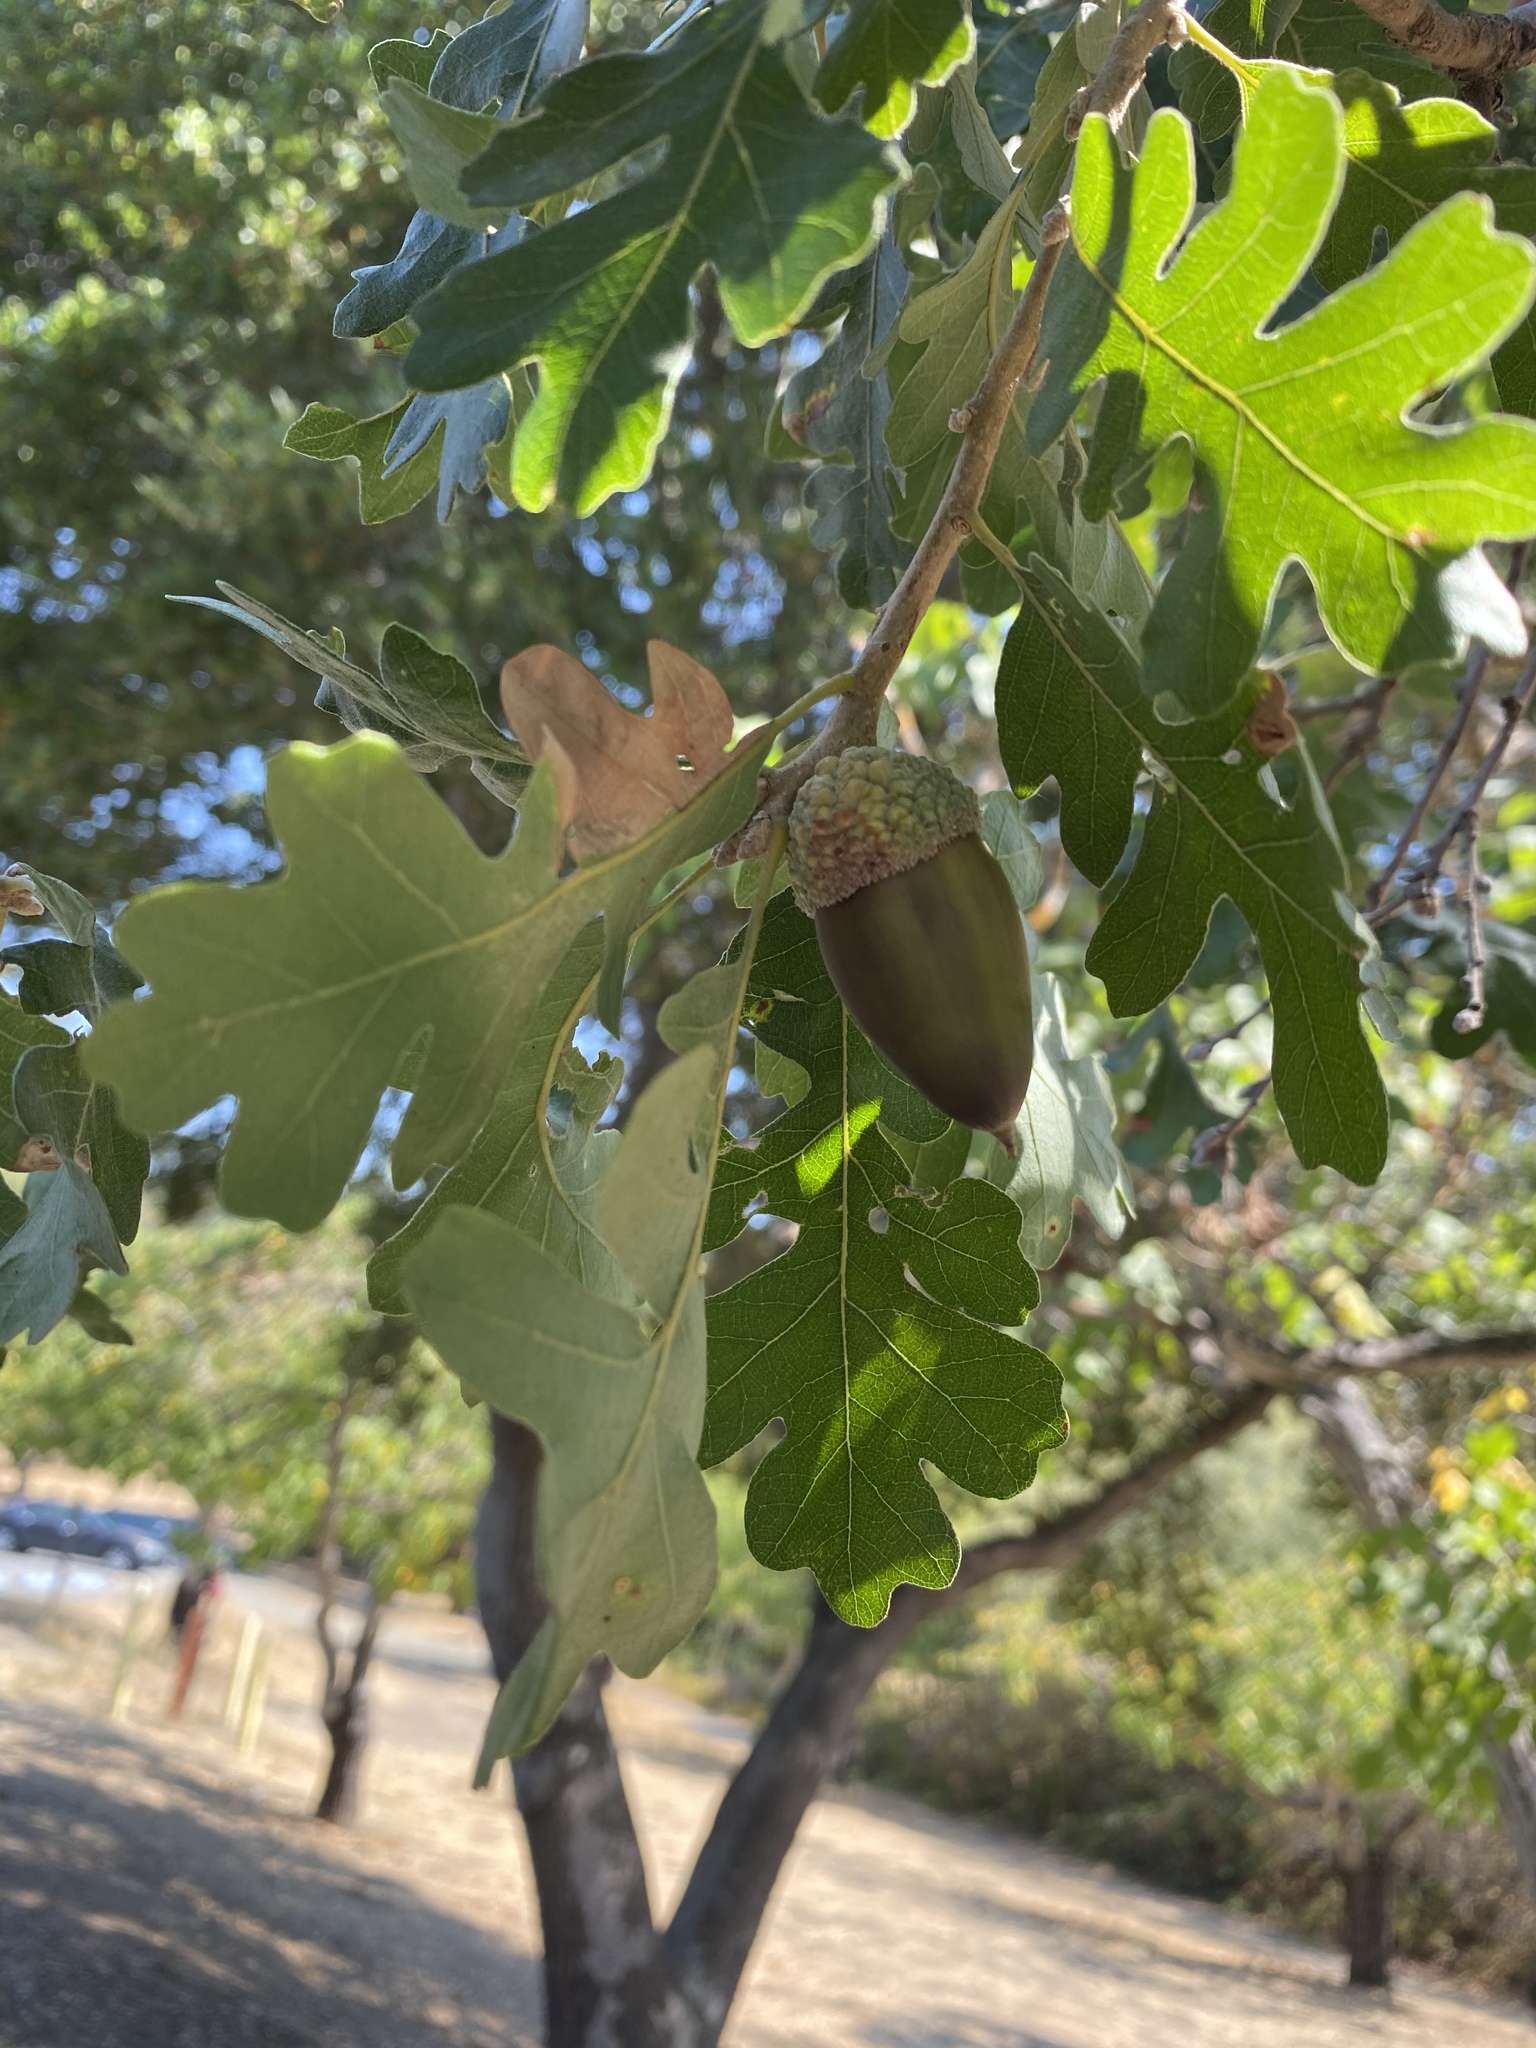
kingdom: Plantae
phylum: Tracheophyta
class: Magnoliopsida
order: Fagales
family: Fagaceae
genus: Quercus
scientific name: Quercus lobata
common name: Valley oak
